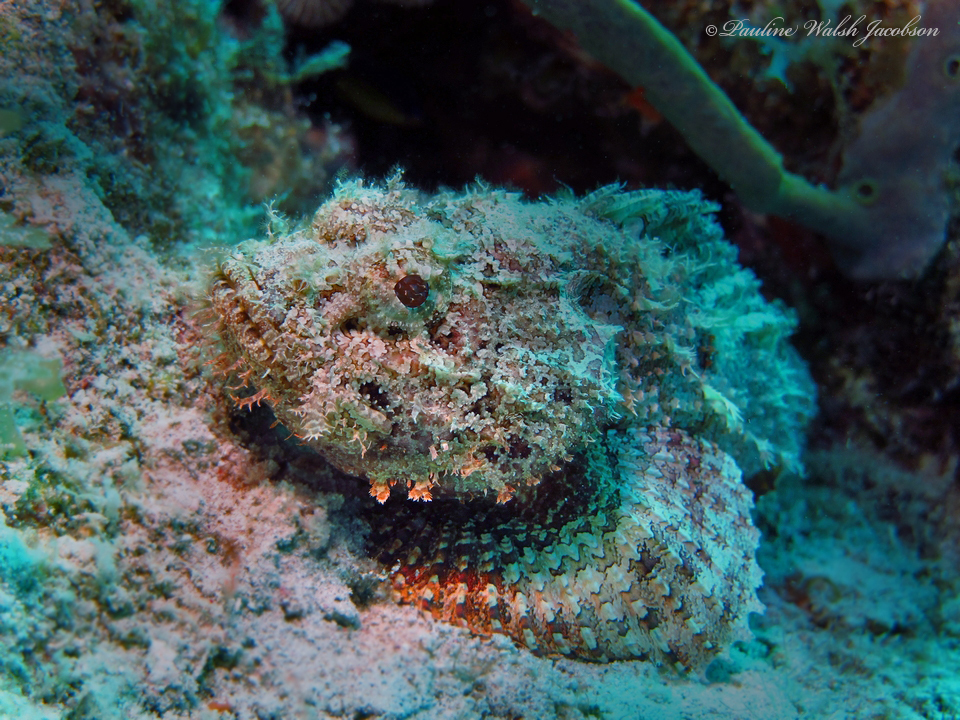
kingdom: Animalia
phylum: Chordata
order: Scorpaeniformes
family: Scorpaenidae
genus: Scorpaena
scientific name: Scorpaena plumieri
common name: Spotted scorpionfish
